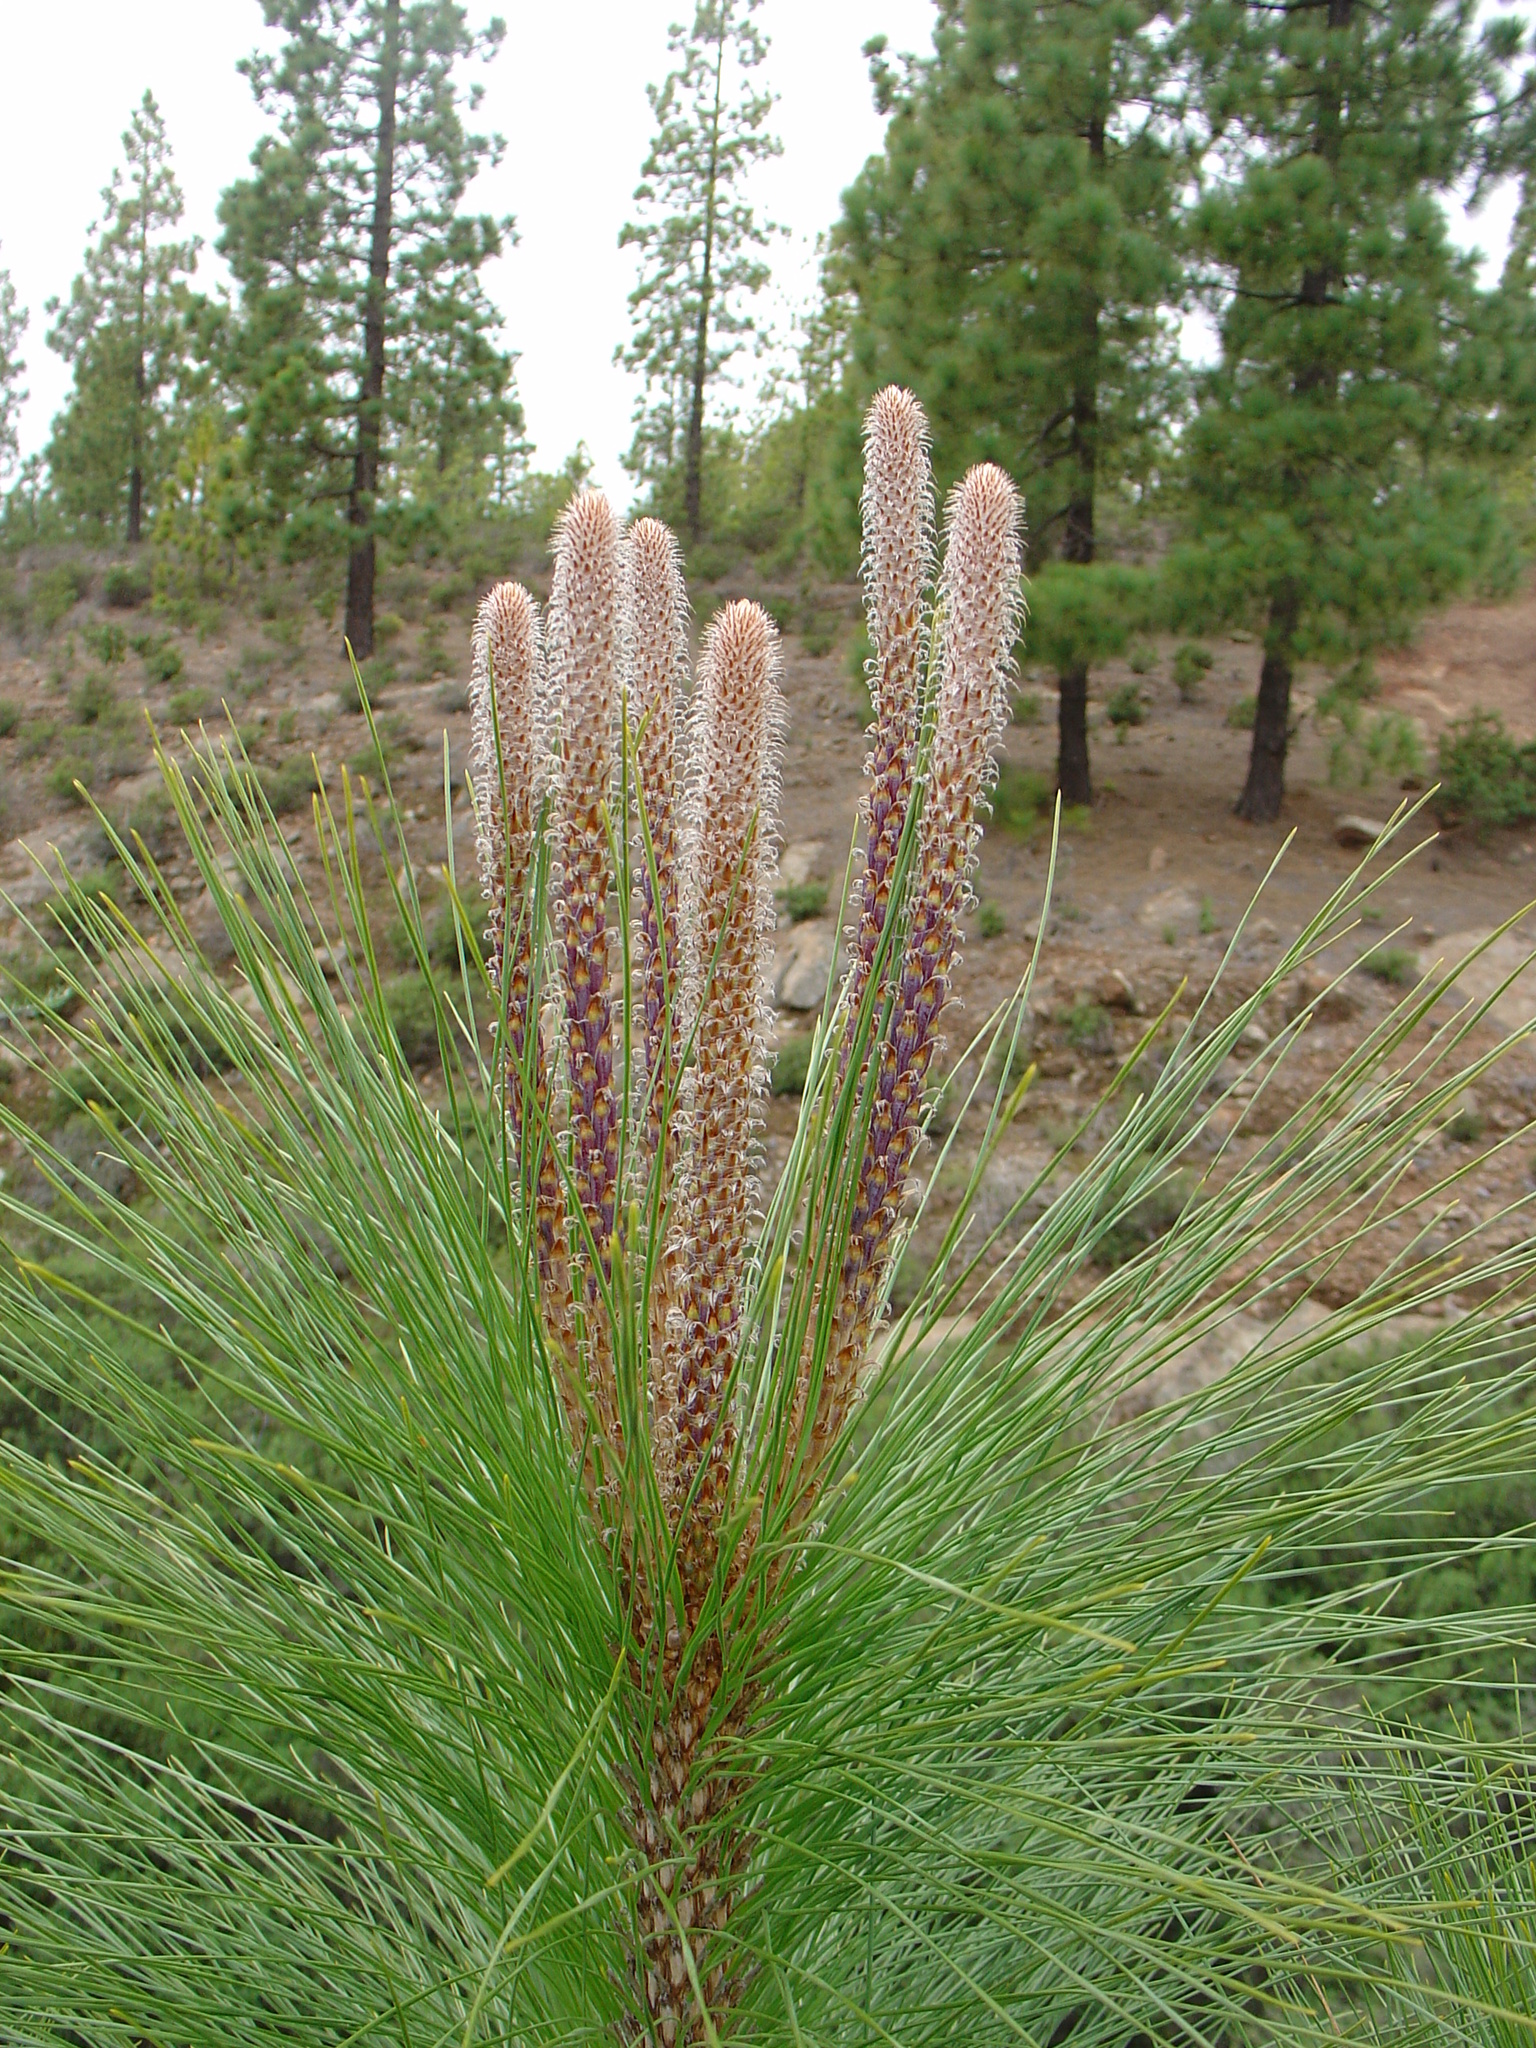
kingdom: Plantae
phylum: Tracheophyta
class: Pinopsida
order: Pinales
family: Pinaceae
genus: Pinus
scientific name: Pinus canariensis
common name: Canary islands pine
